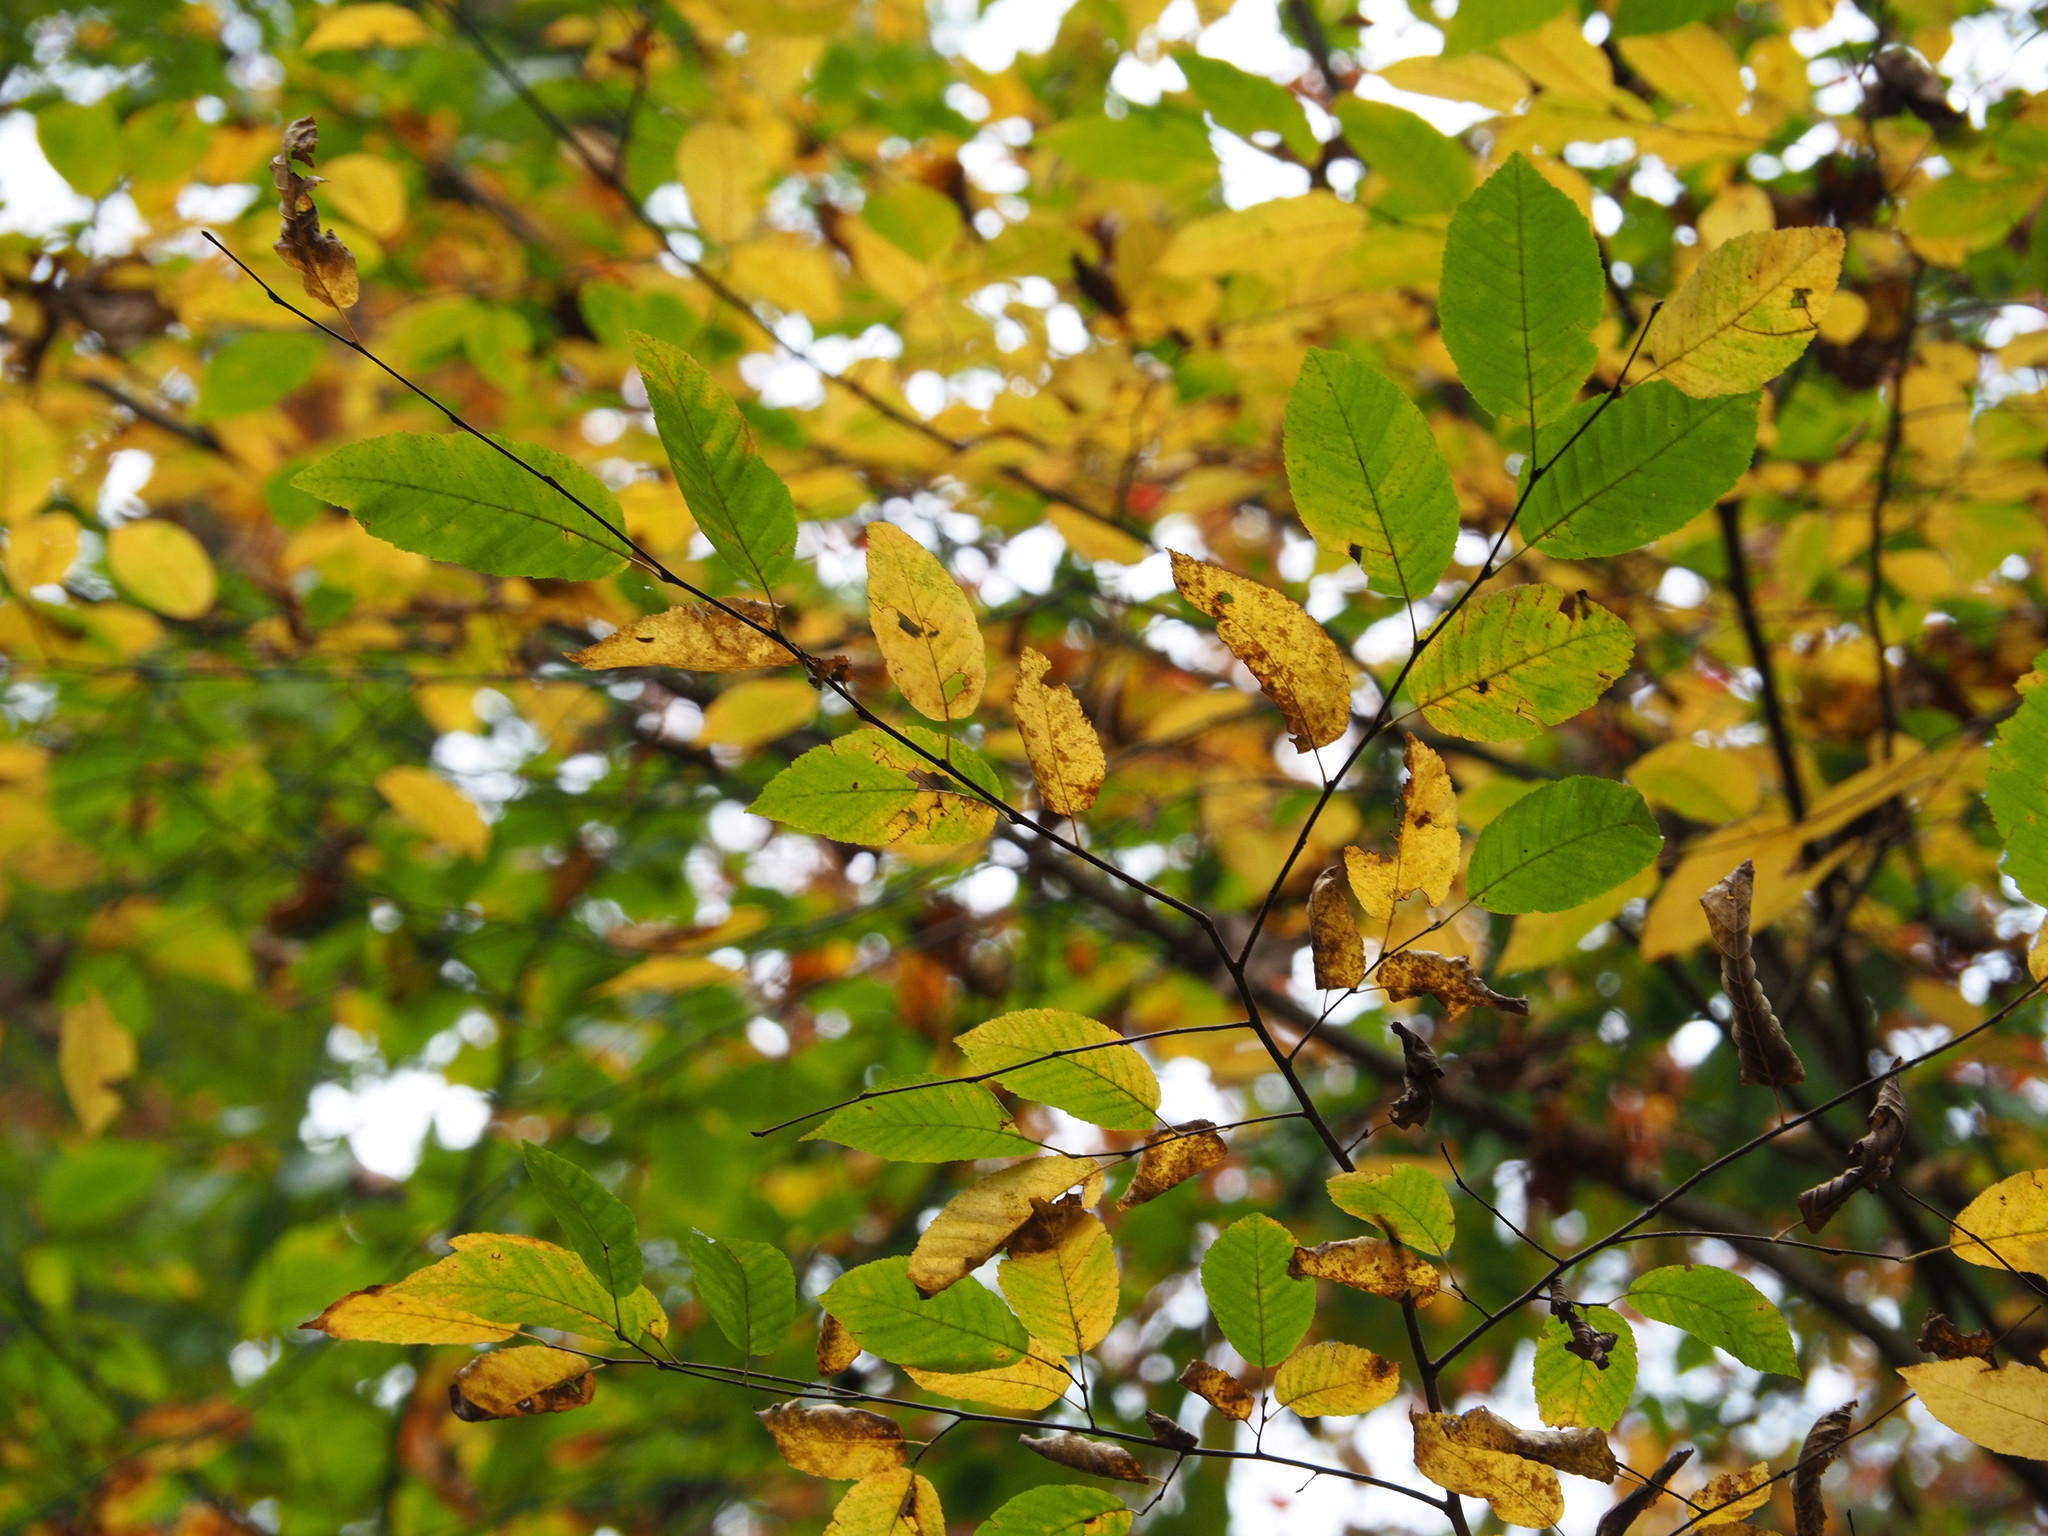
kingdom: Plantae
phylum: Tracheophyta
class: Magnoliopsida
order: Fagales
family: Betulaceae
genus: Carpinus
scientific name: Carpinus caroliniana
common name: American hornbeam
